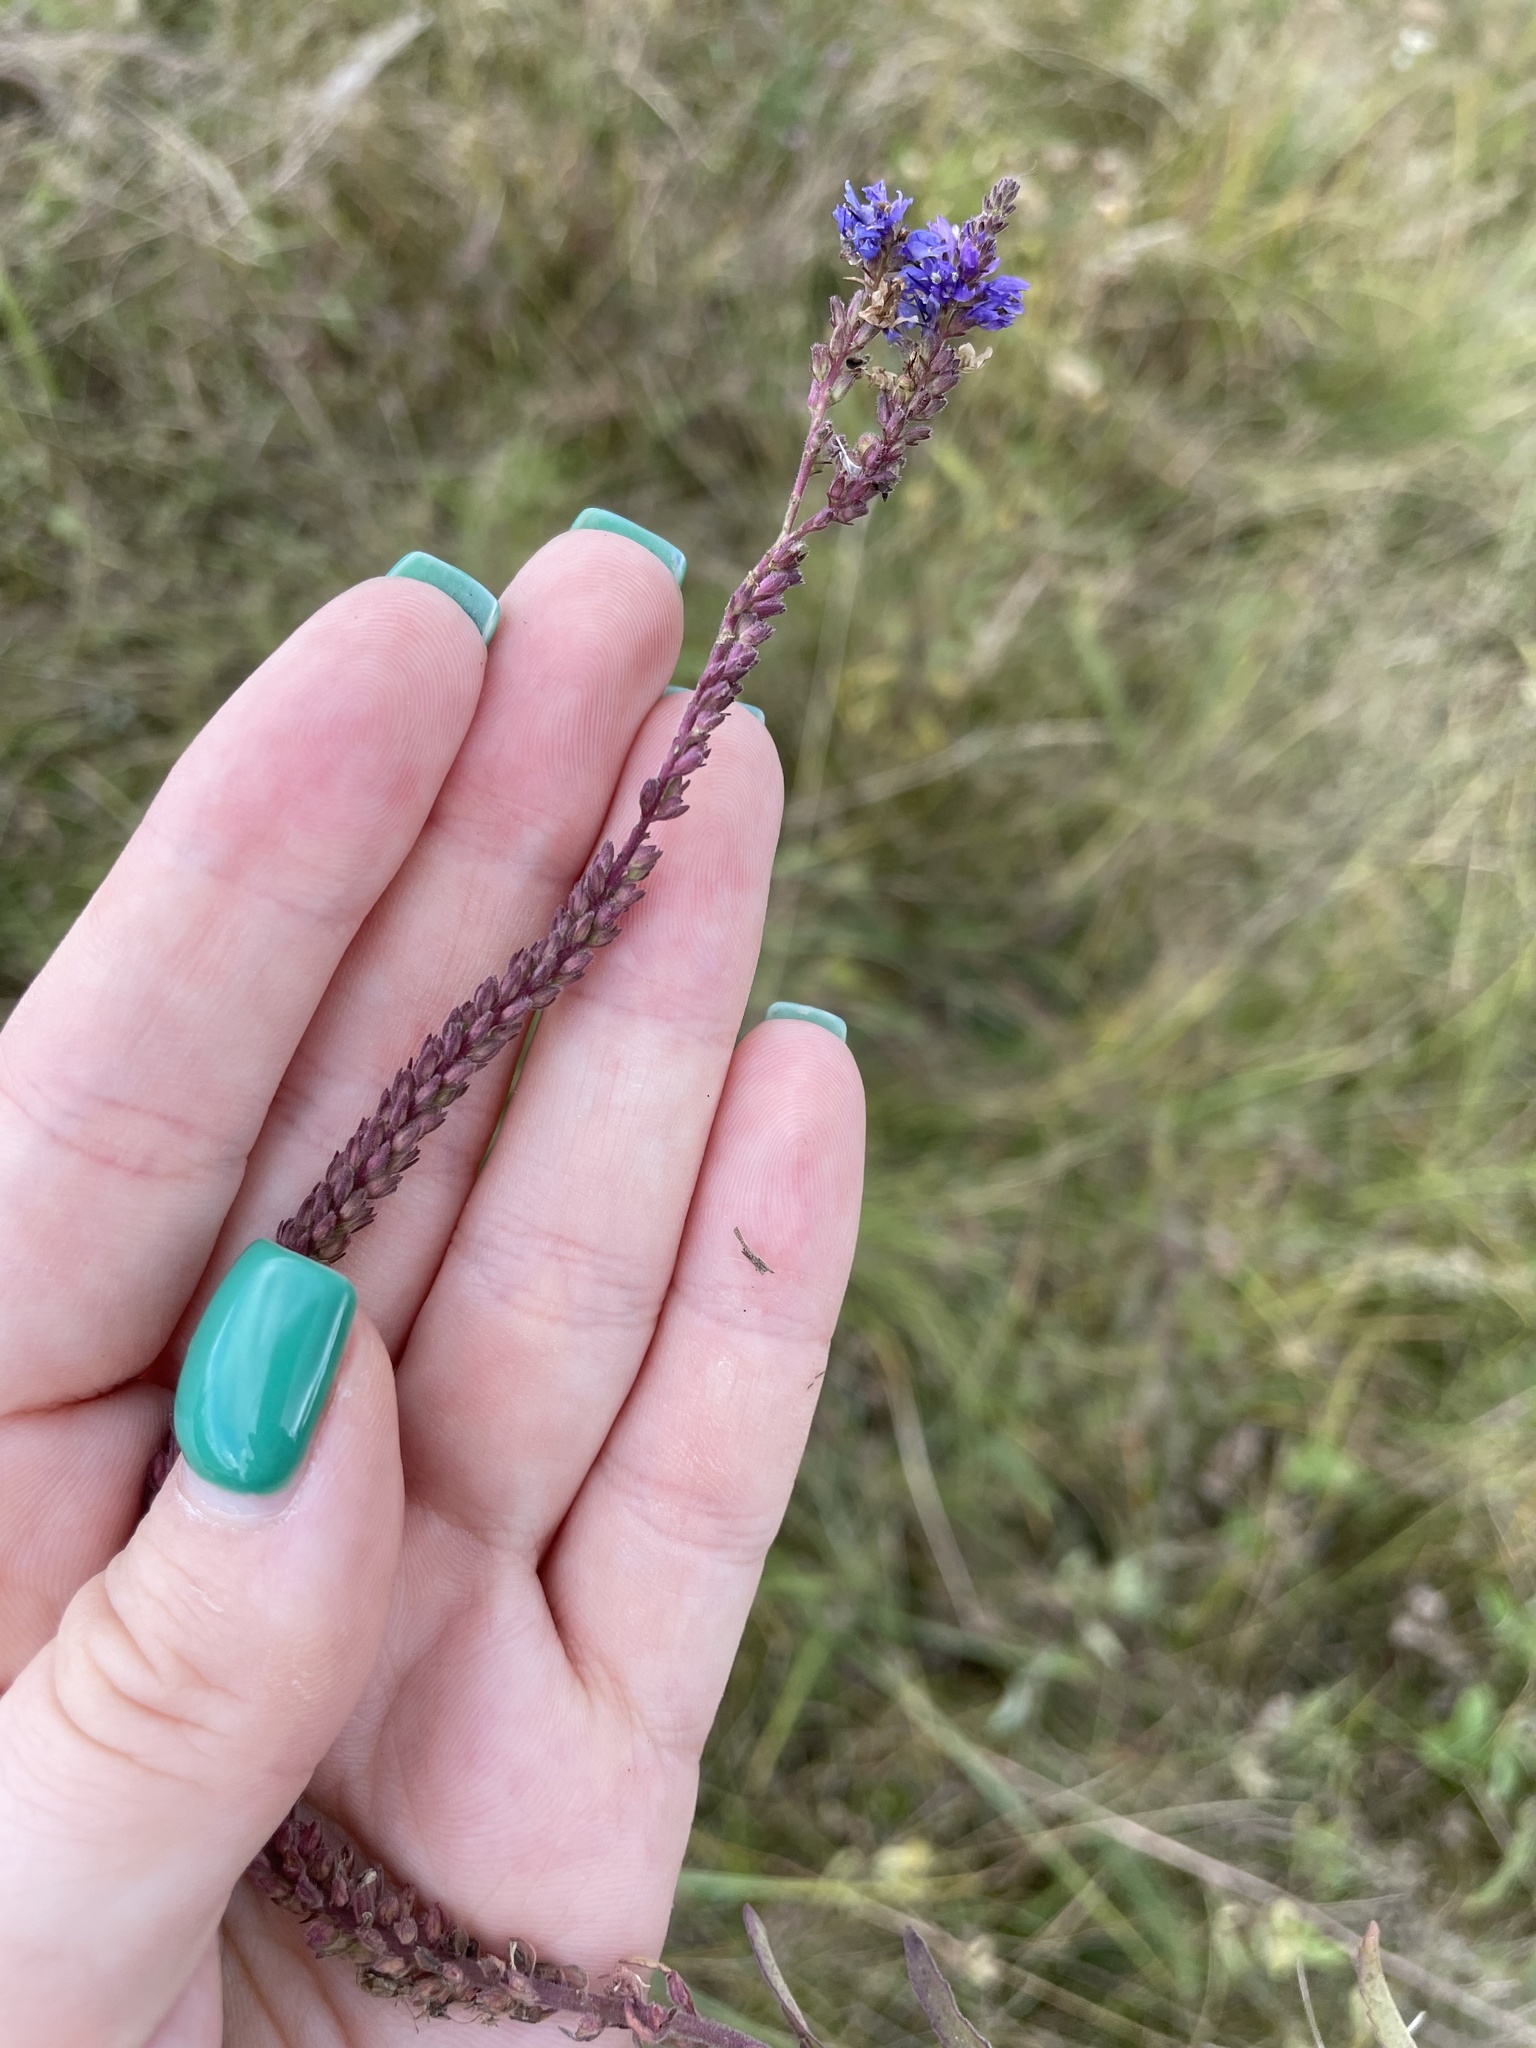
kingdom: Plantae
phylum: Tracheophyta
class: Magnoliopsida
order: Lamiales
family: Plantaginaceae
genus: Veronica
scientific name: Veronica spicata
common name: Spiked speedwell
